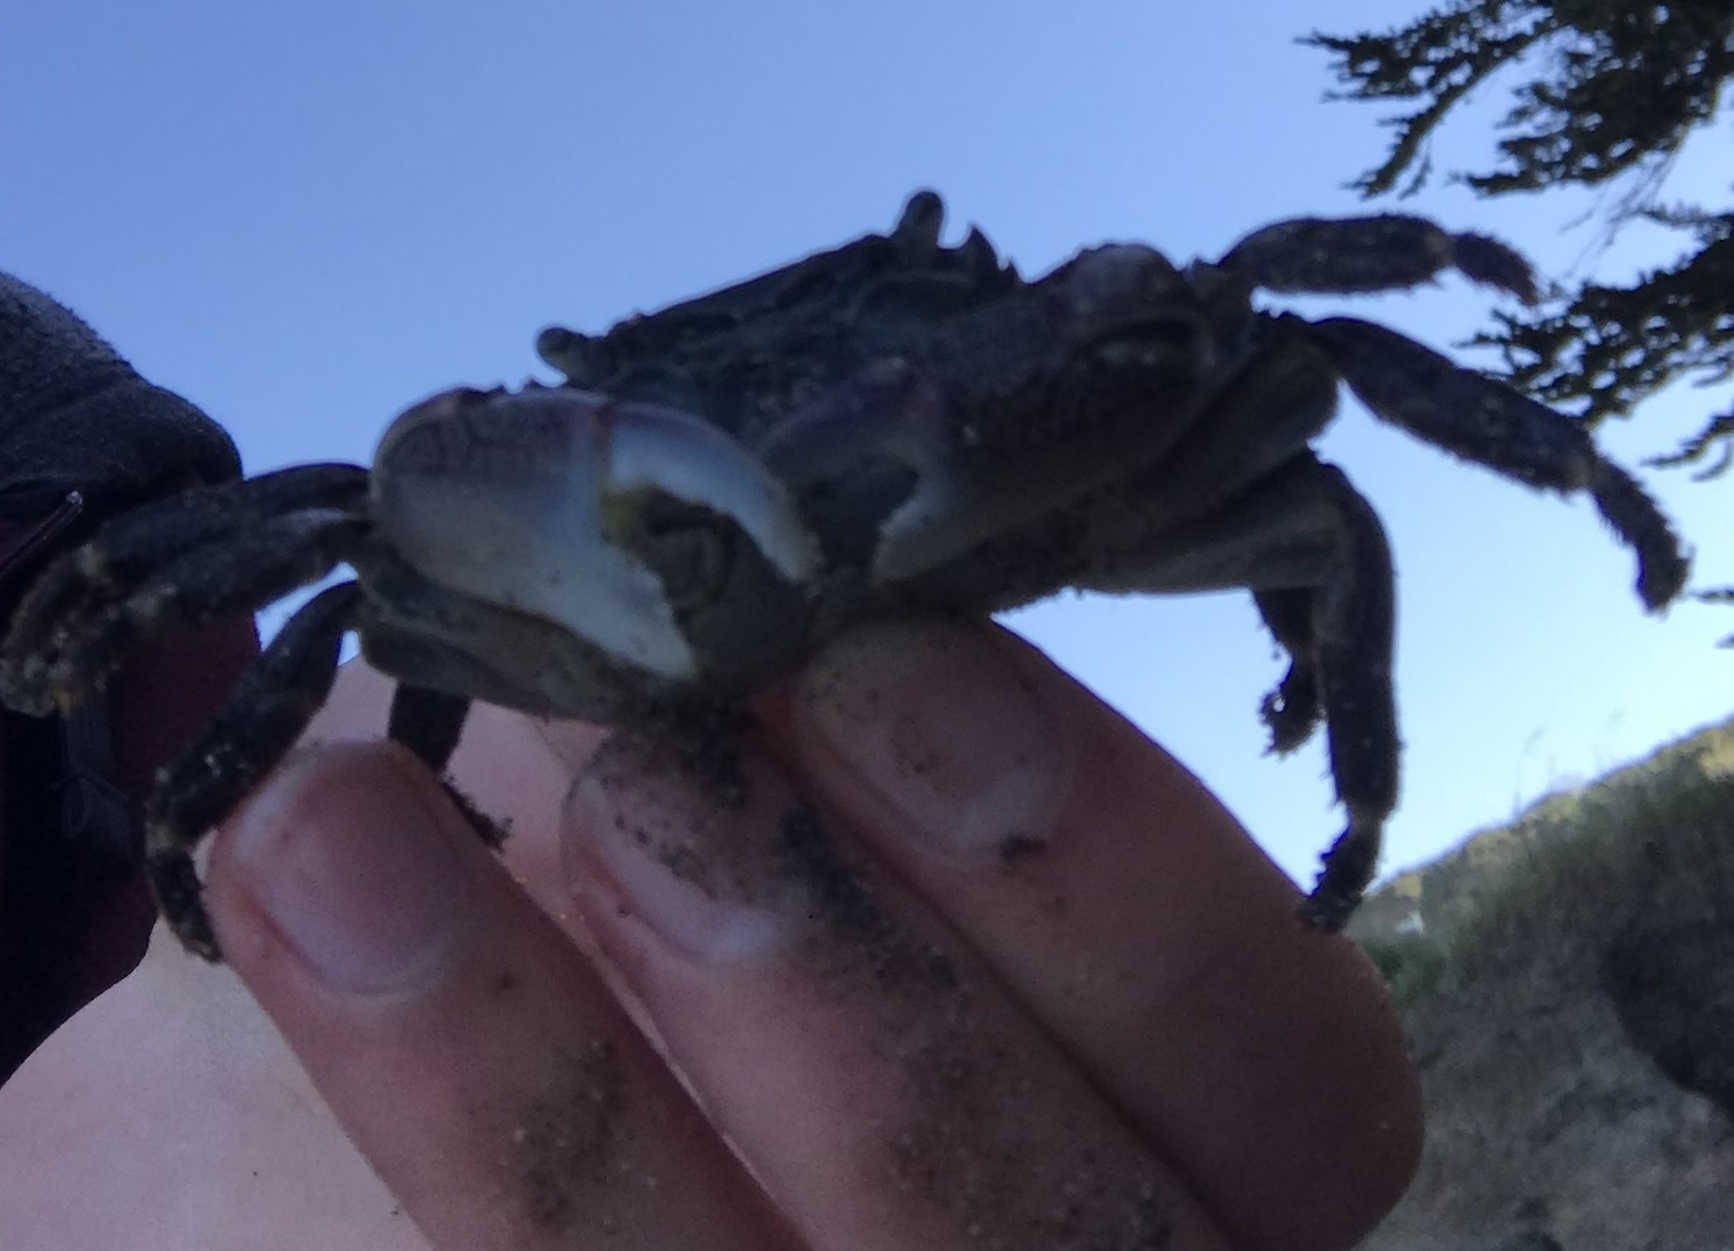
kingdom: Animalia
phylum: Arthropoda
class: Malacostraca
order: Decapoda
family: Grapsidae
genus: Pachygrapsus
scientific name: Pachygrapsus crassipes
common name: Striped shore crab
